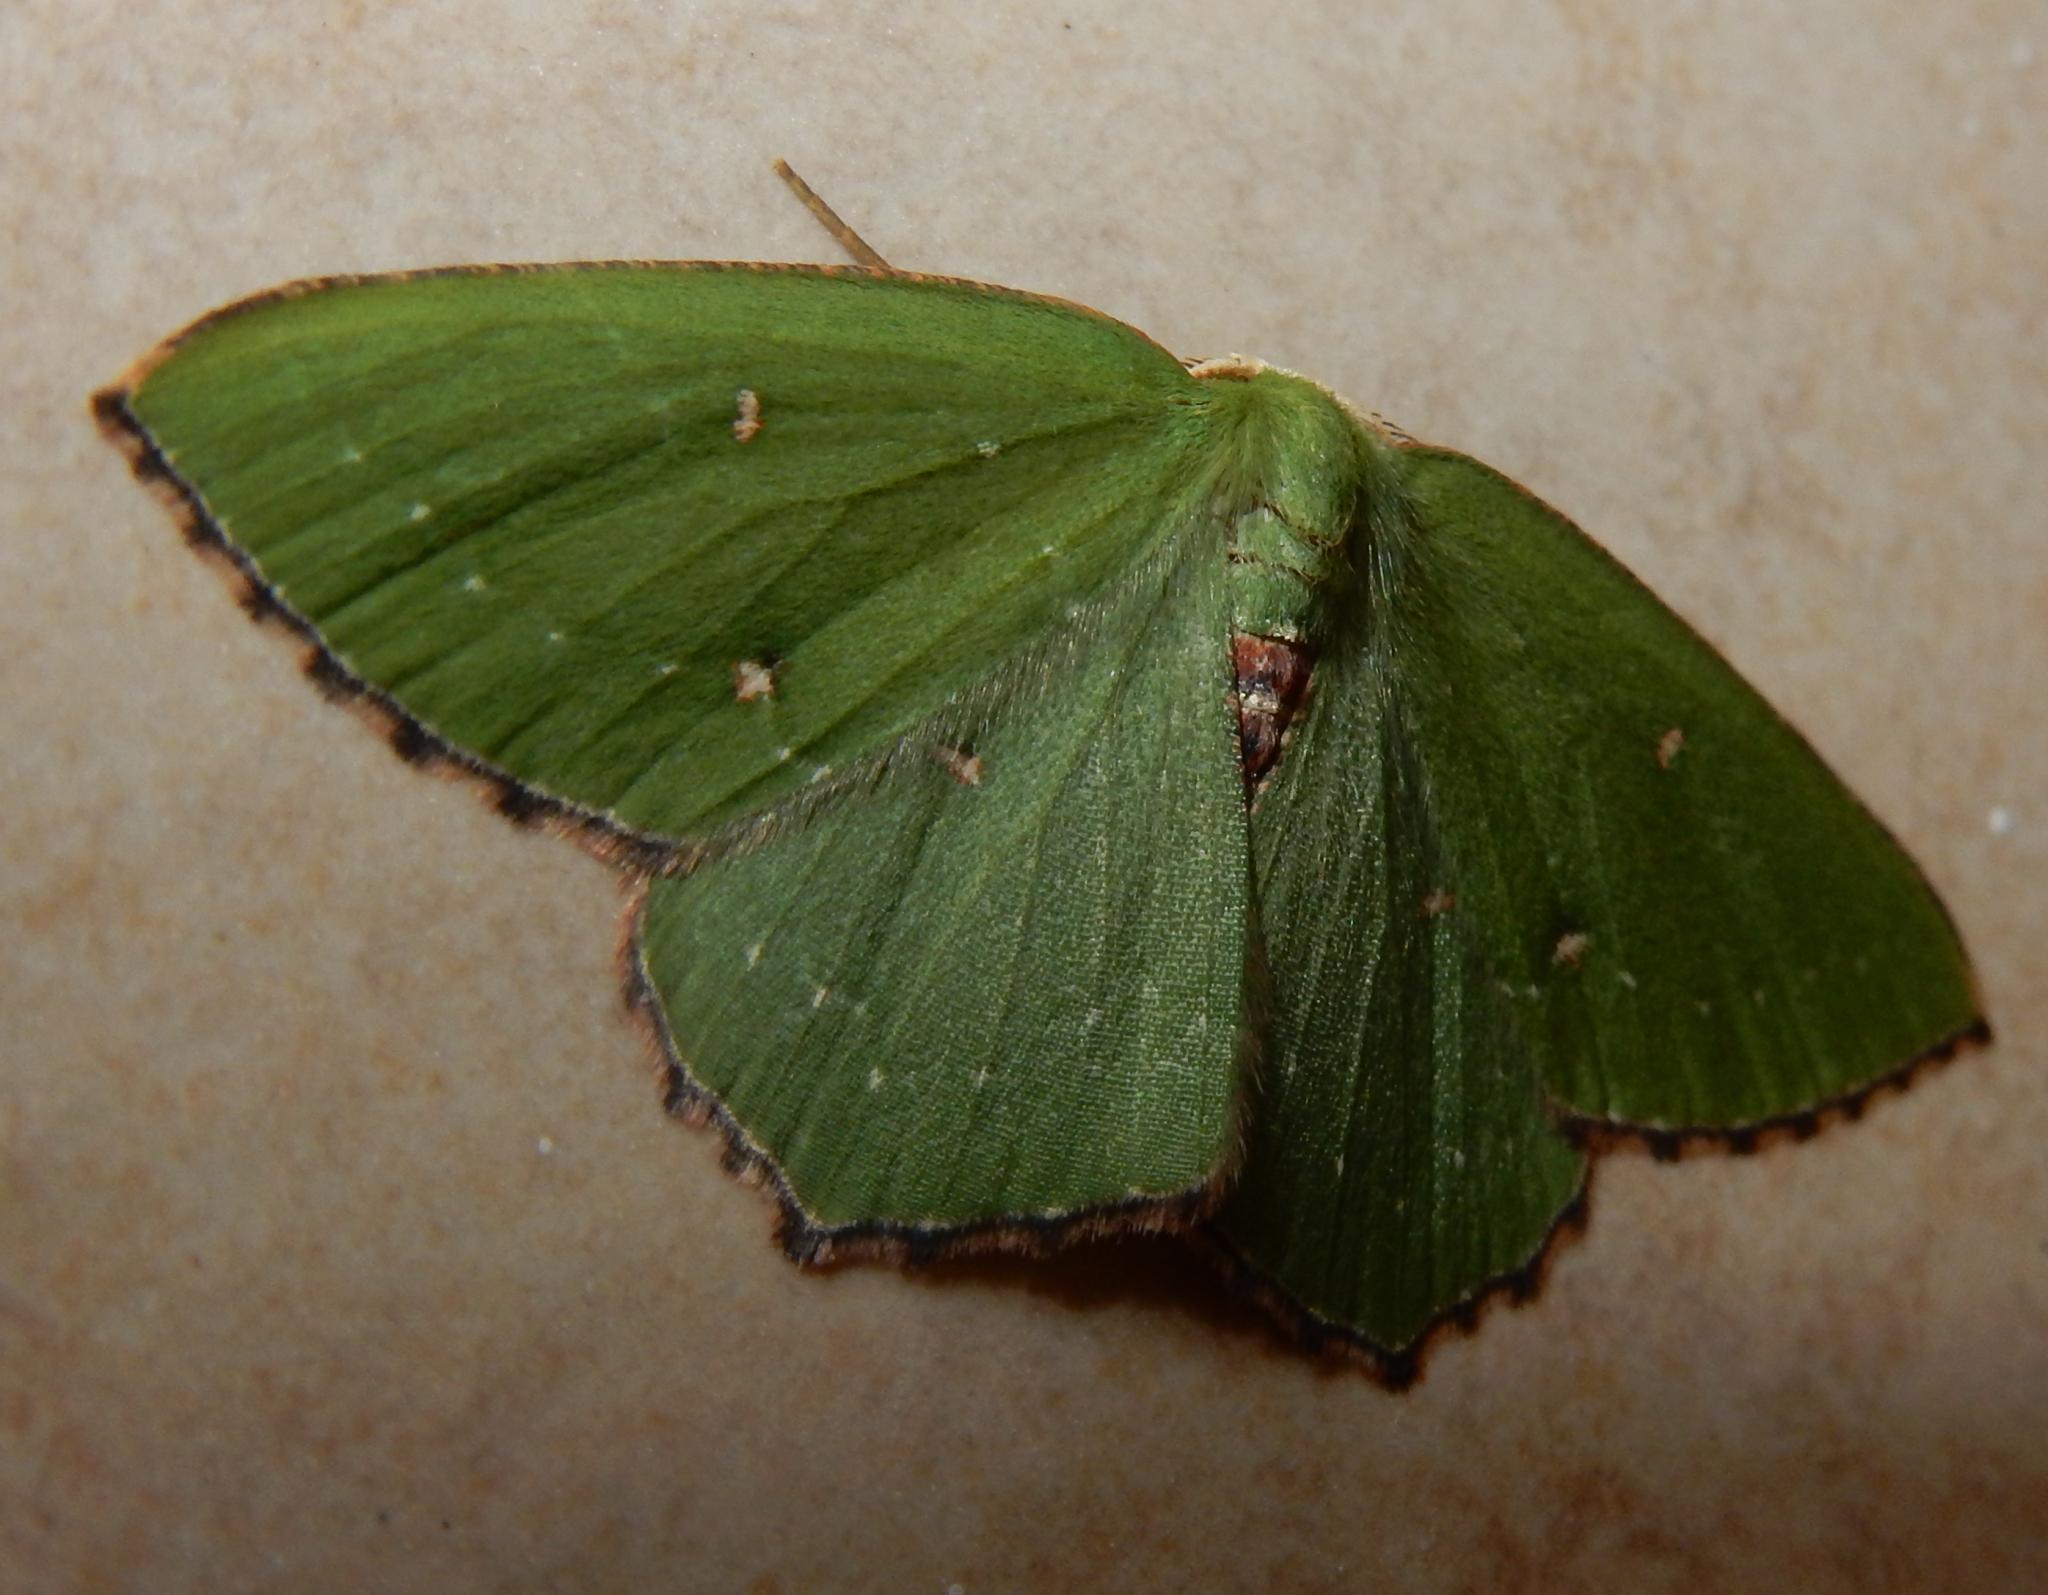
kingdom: Animalia
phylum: Arthropoda
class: Insecta
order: Lepidoptera
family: Geometridae
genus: Lasiochlora
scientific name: Lasiochlora diducta
